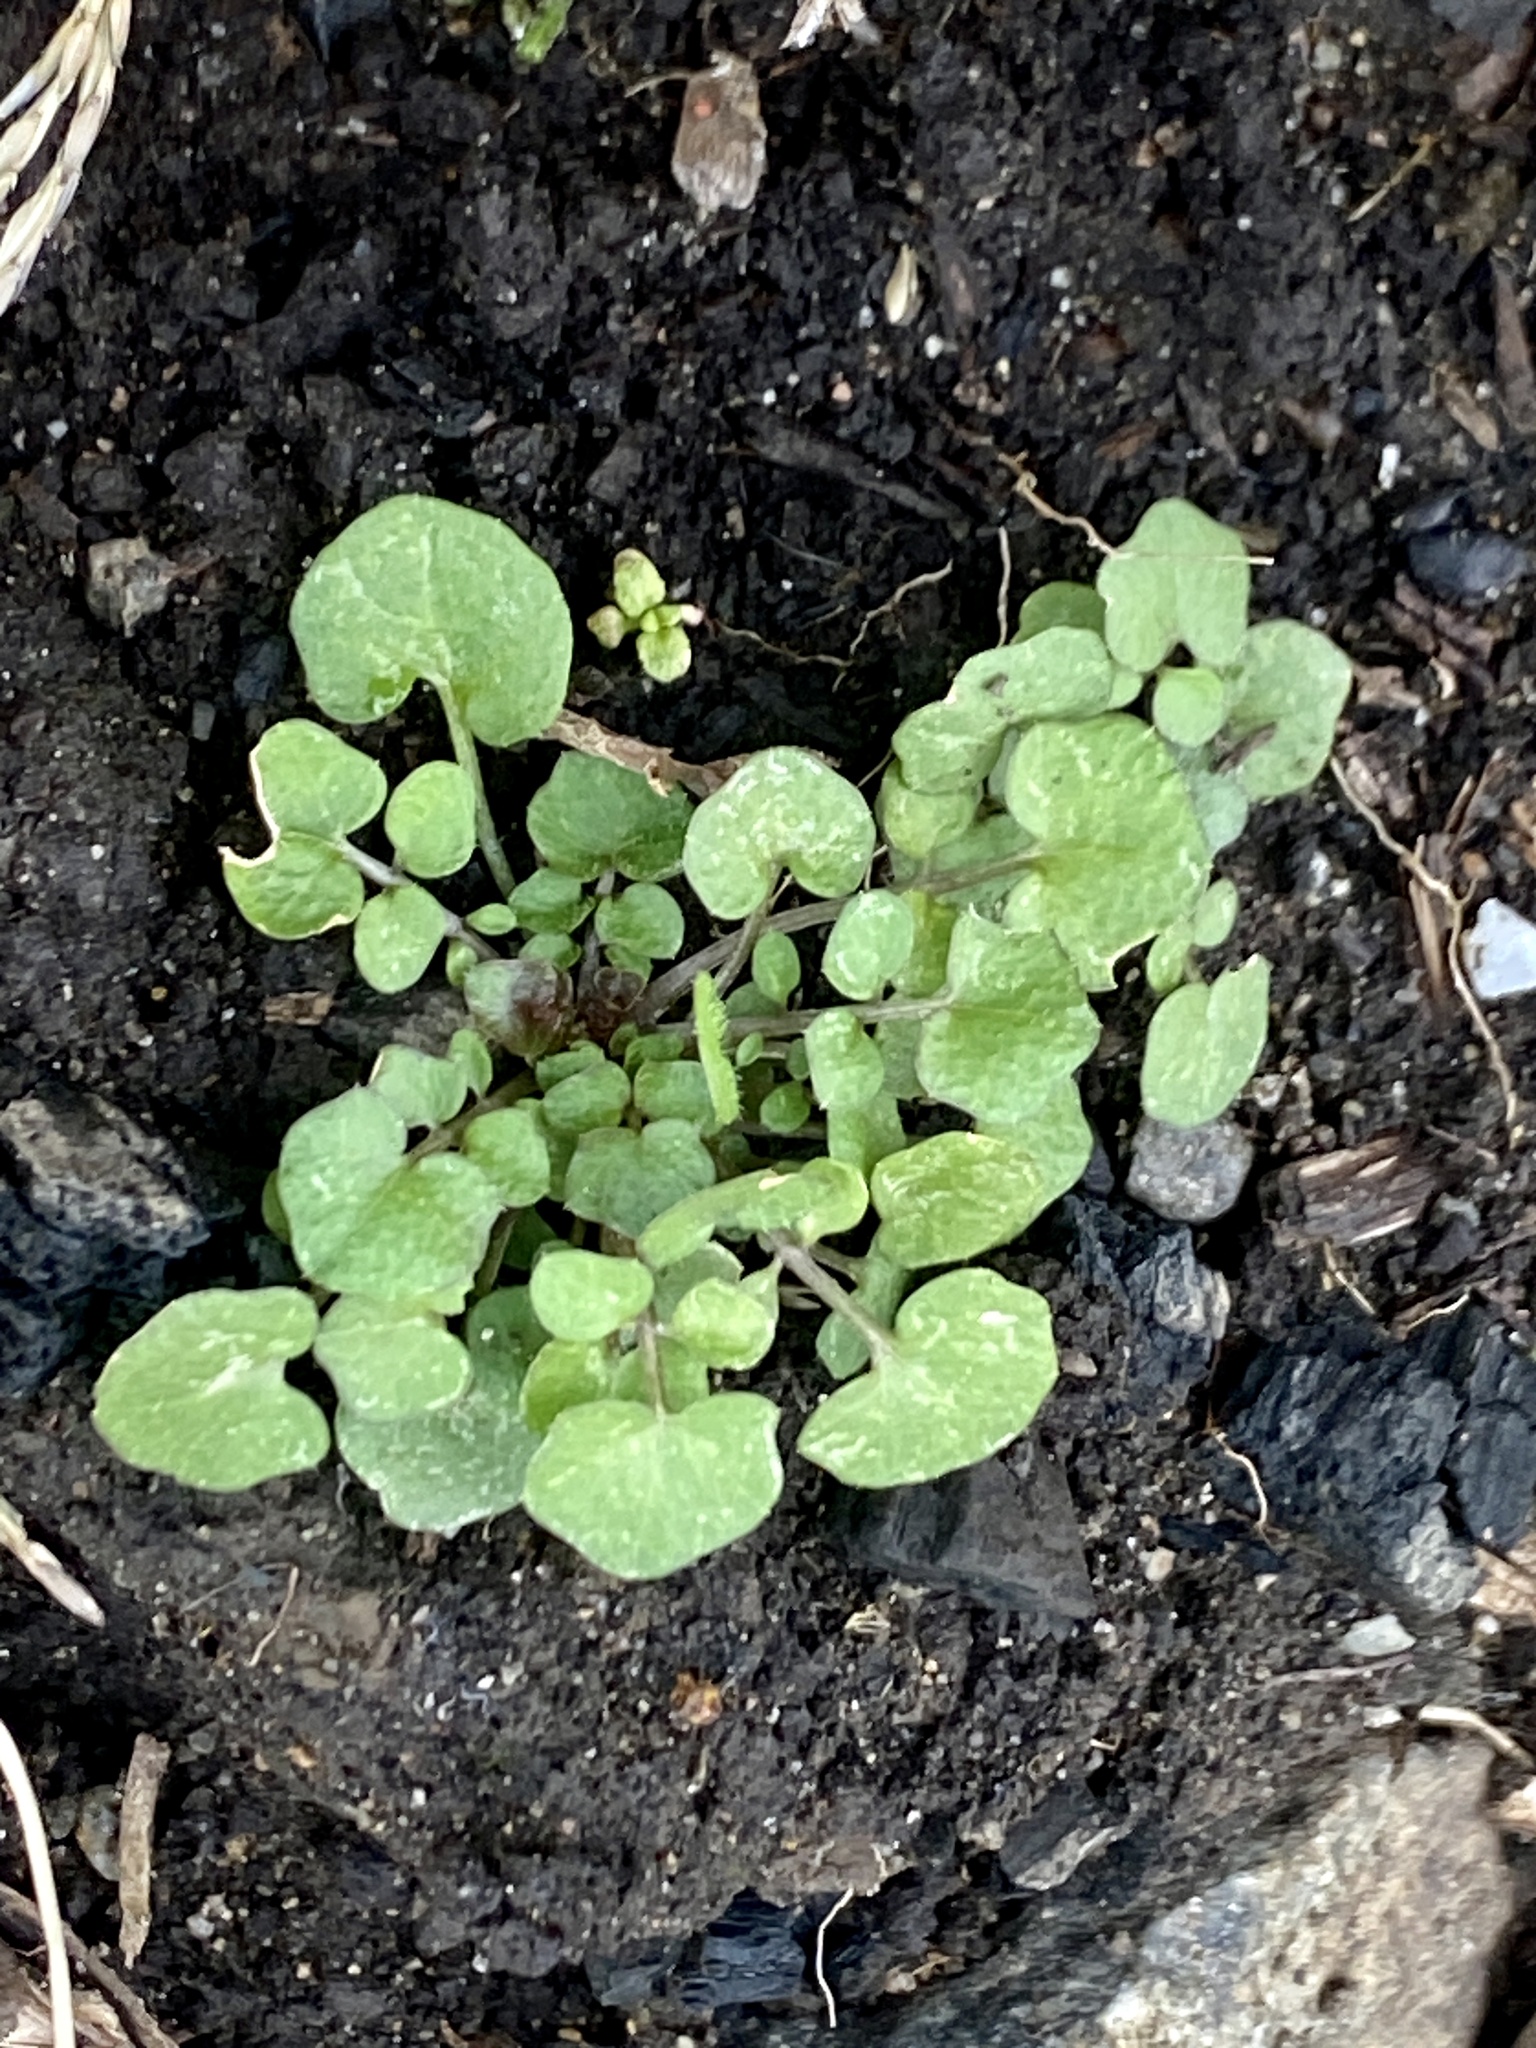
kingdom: Plantae
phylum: Tracheophyta
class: Magnoliopsida
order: Brassicales
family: Brassicaceae
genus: Cardamine
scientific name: Cardamine hirsuta
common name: Hairy bittercress
